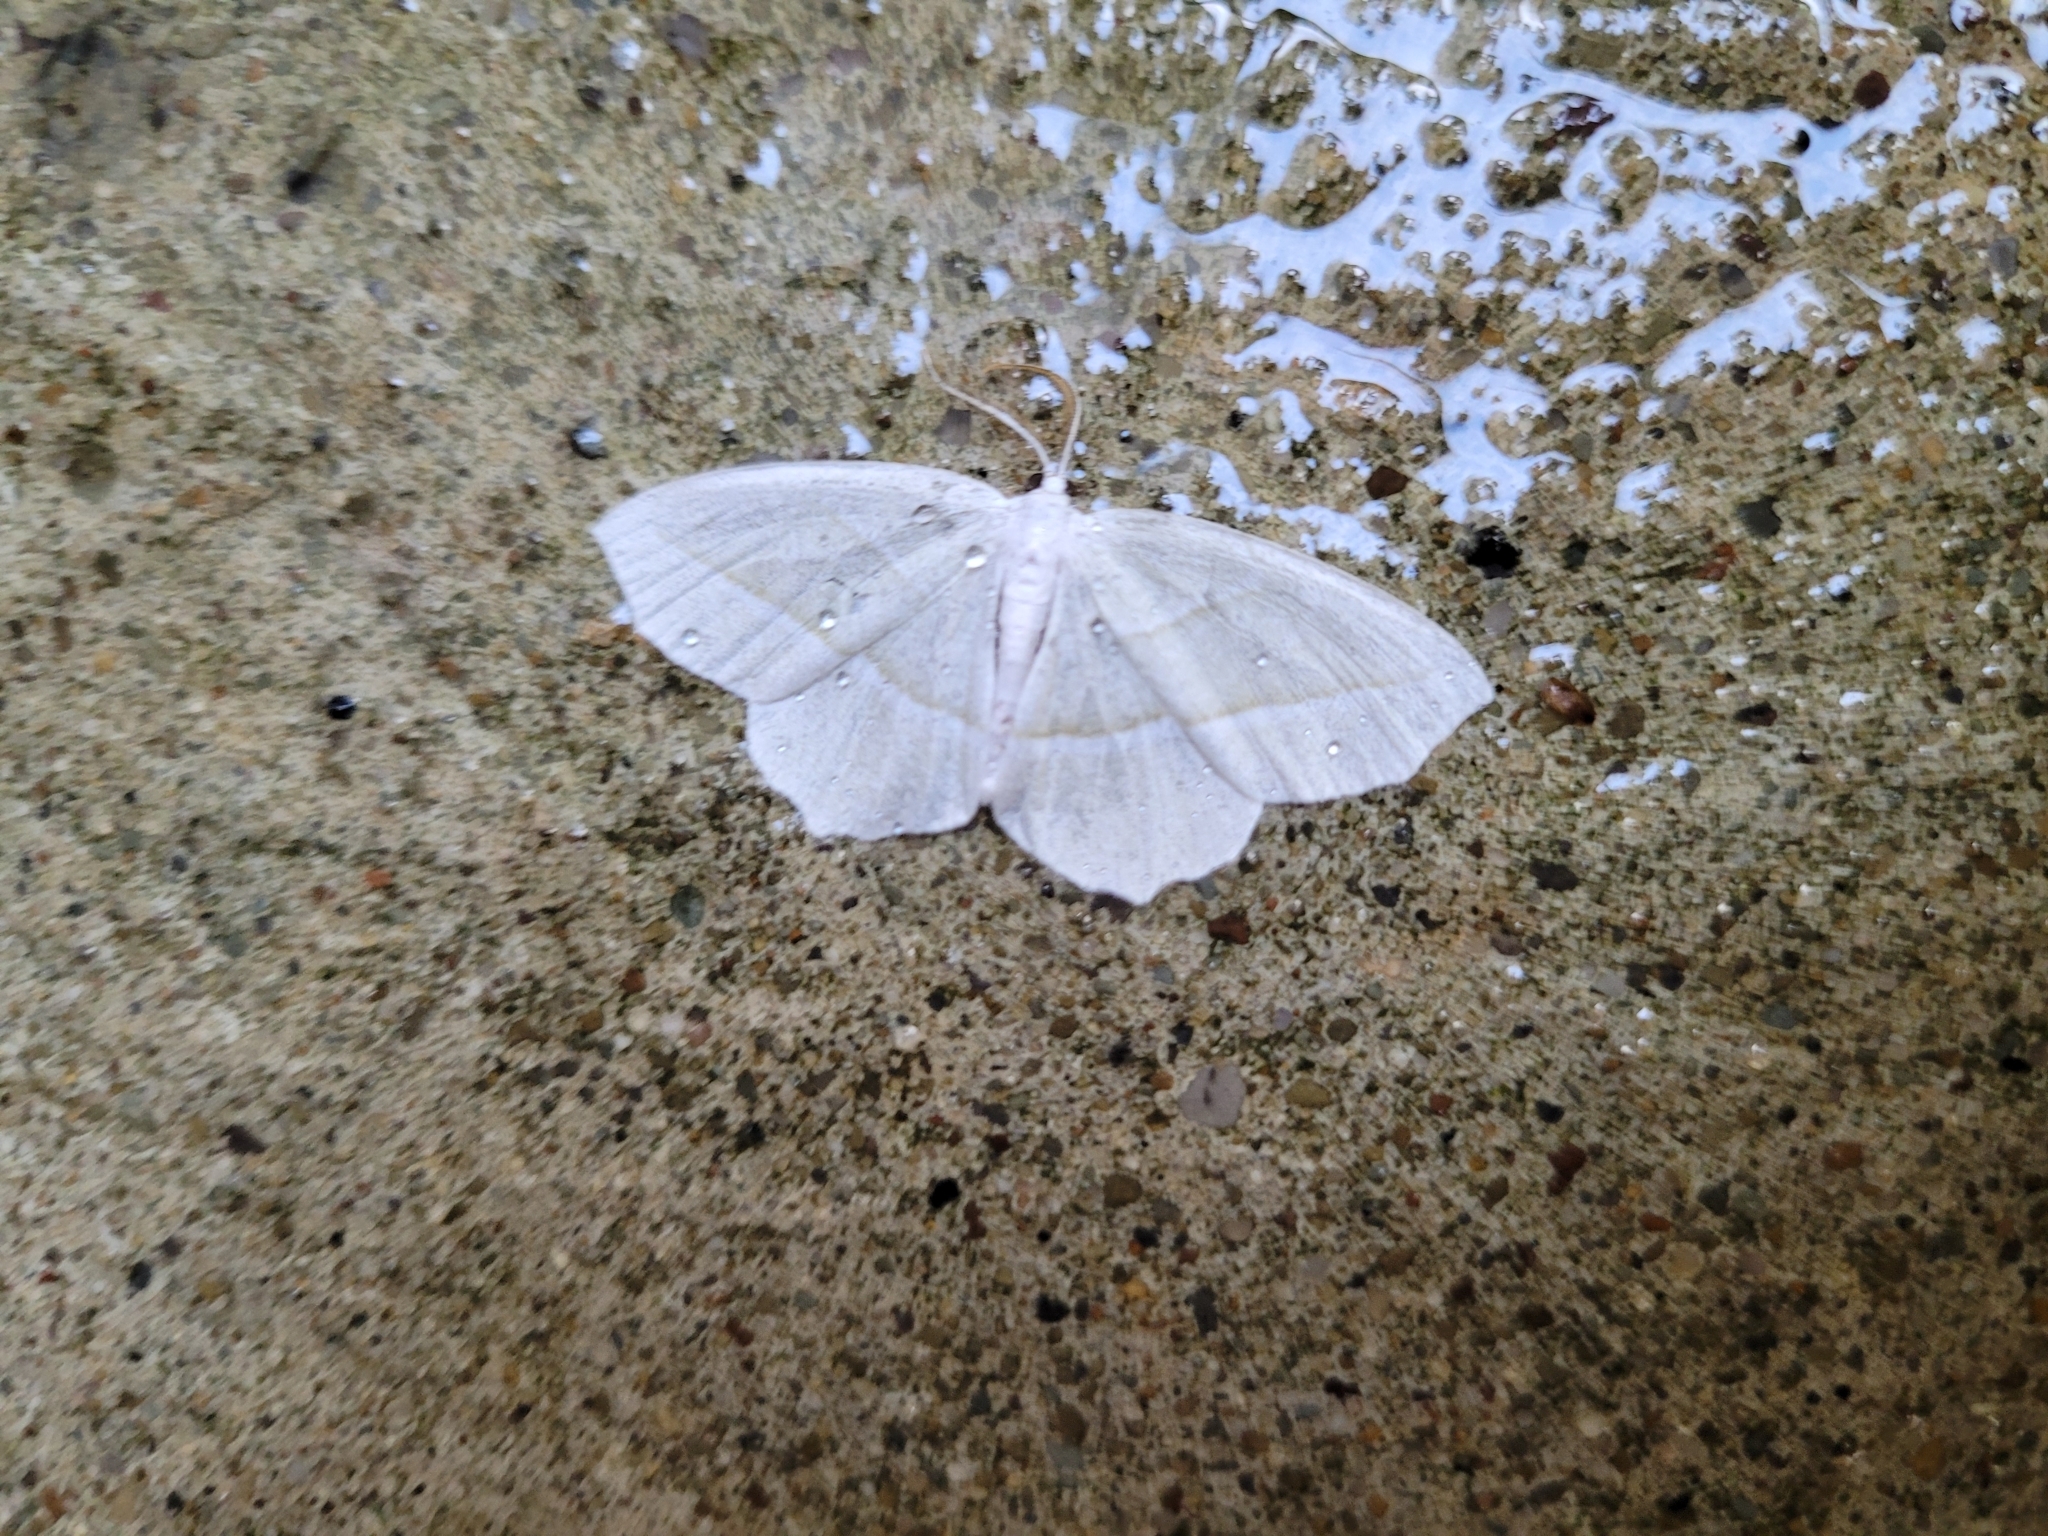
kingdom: Animalia
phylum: Arthropoda
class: Insecta
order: Lepidoptera
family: Geometridae
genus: Campaea
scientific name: Campaea perlata
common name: Fringed looper
